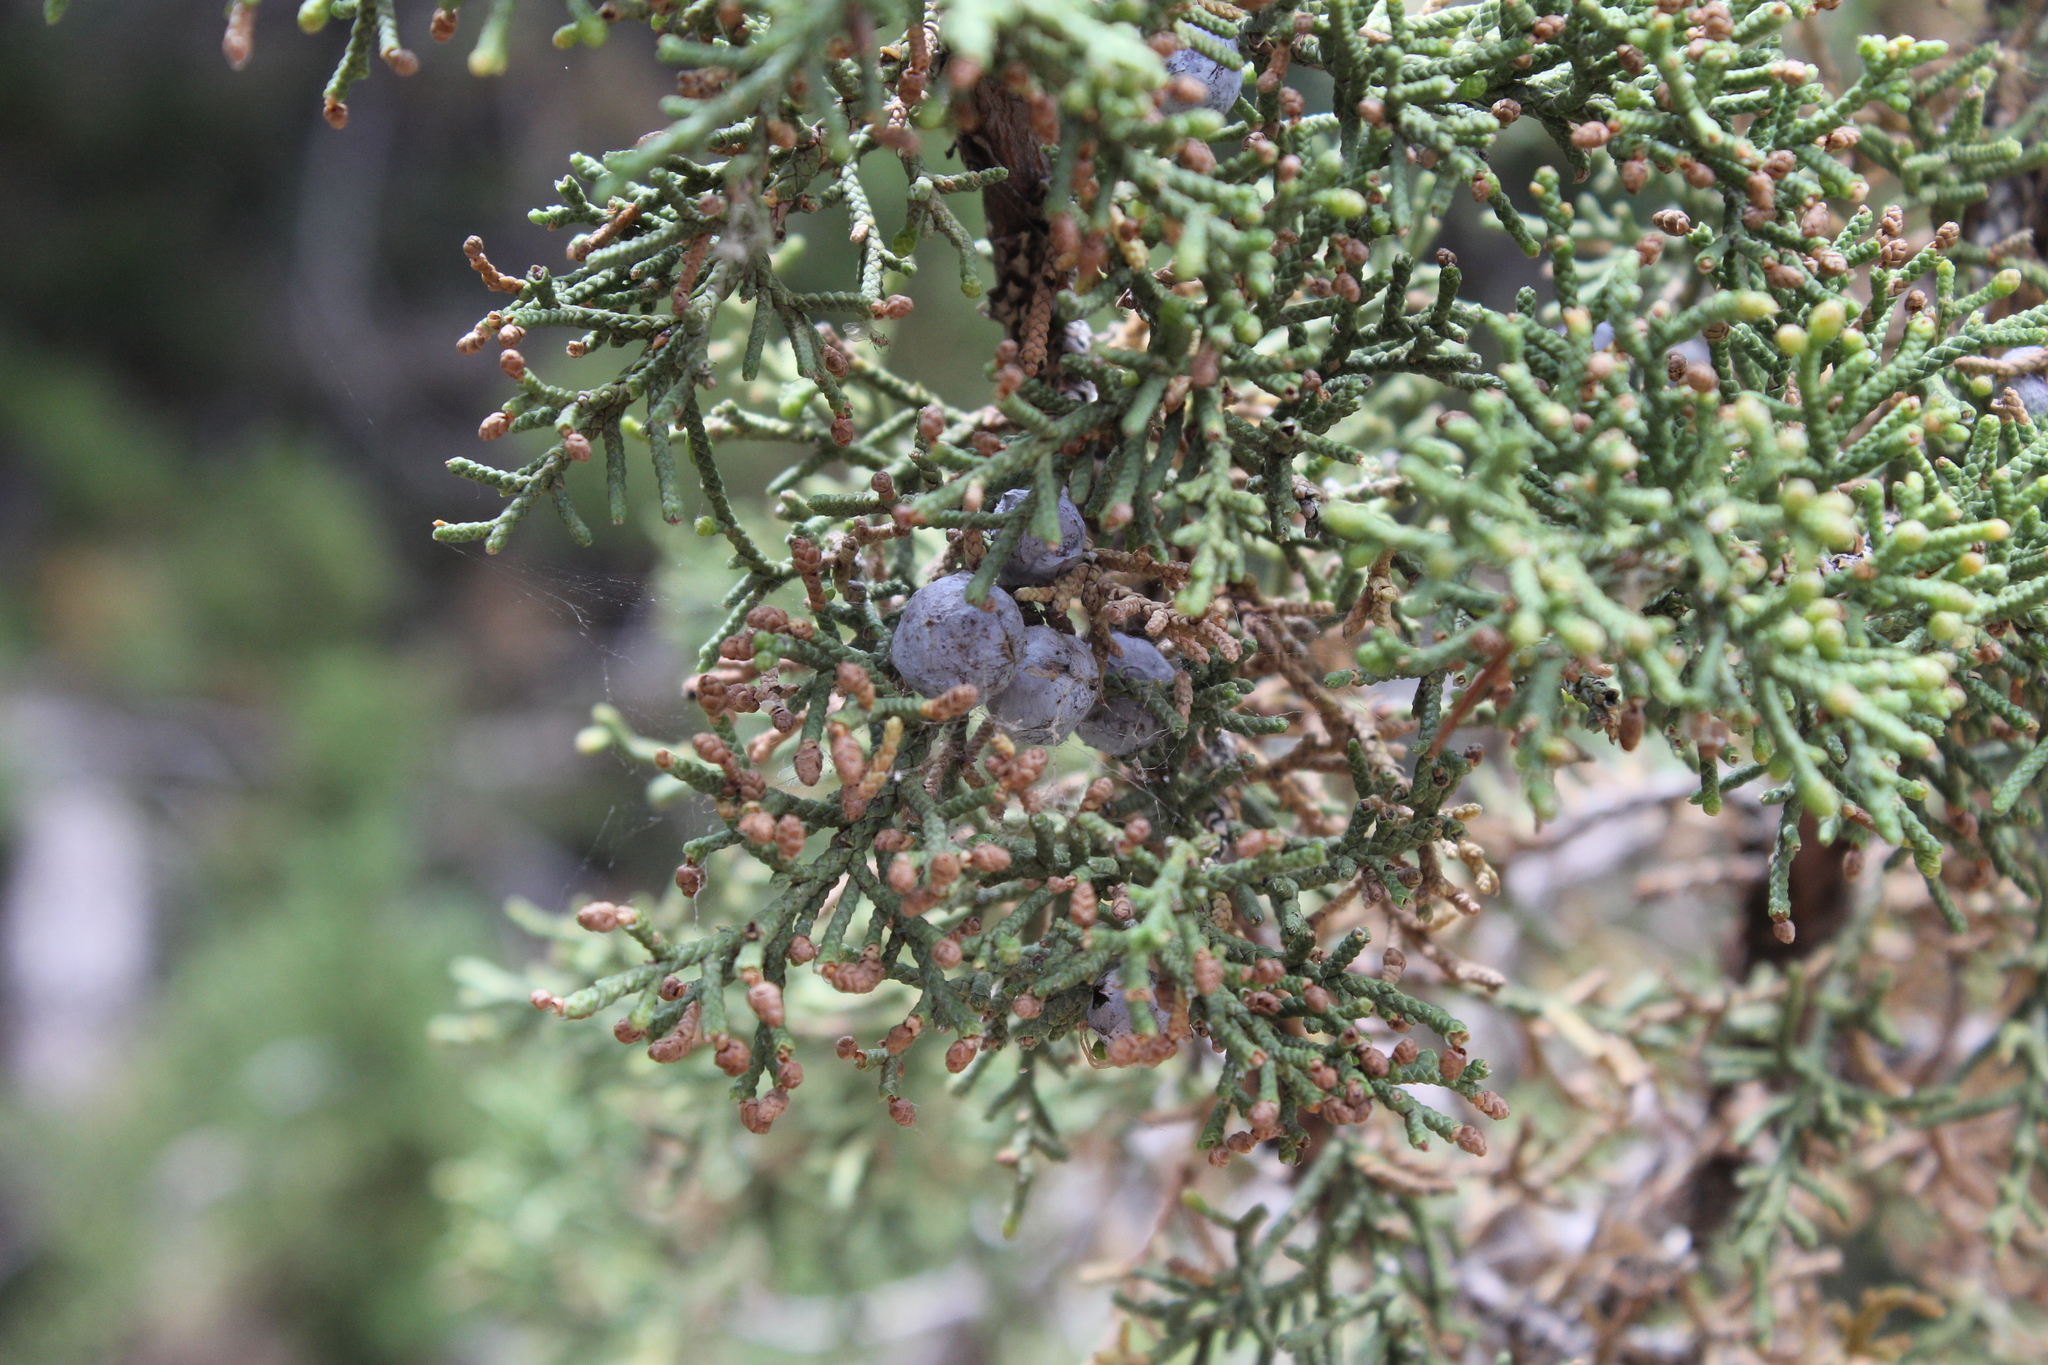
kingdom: Plantae
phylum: Tracheophyta
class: Pinopsida
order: Pinales
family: Cupressaceae
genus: Juniperus
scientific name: Juniperus osteosperma
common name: Utah juniper
